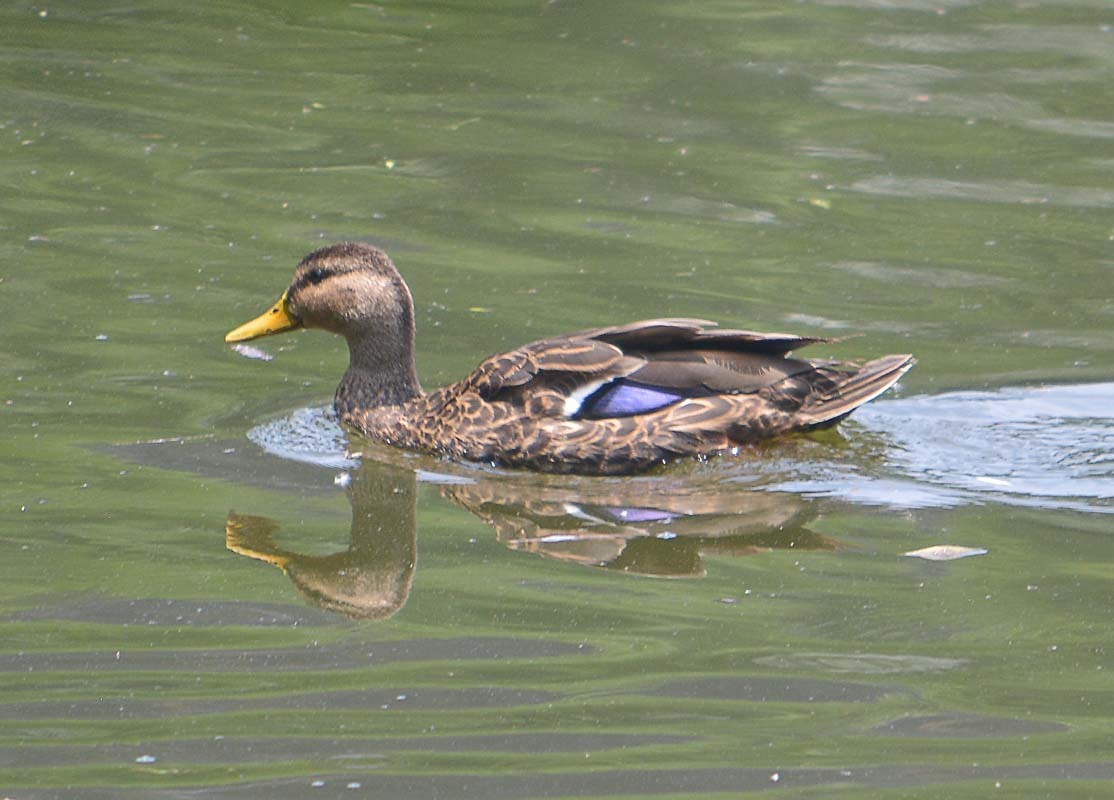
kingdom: Animalia
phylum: Chordata
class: Aves
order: Anseriformes
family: Anatidae
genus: Anas
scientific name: Anas diazi
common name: Mexican duck
